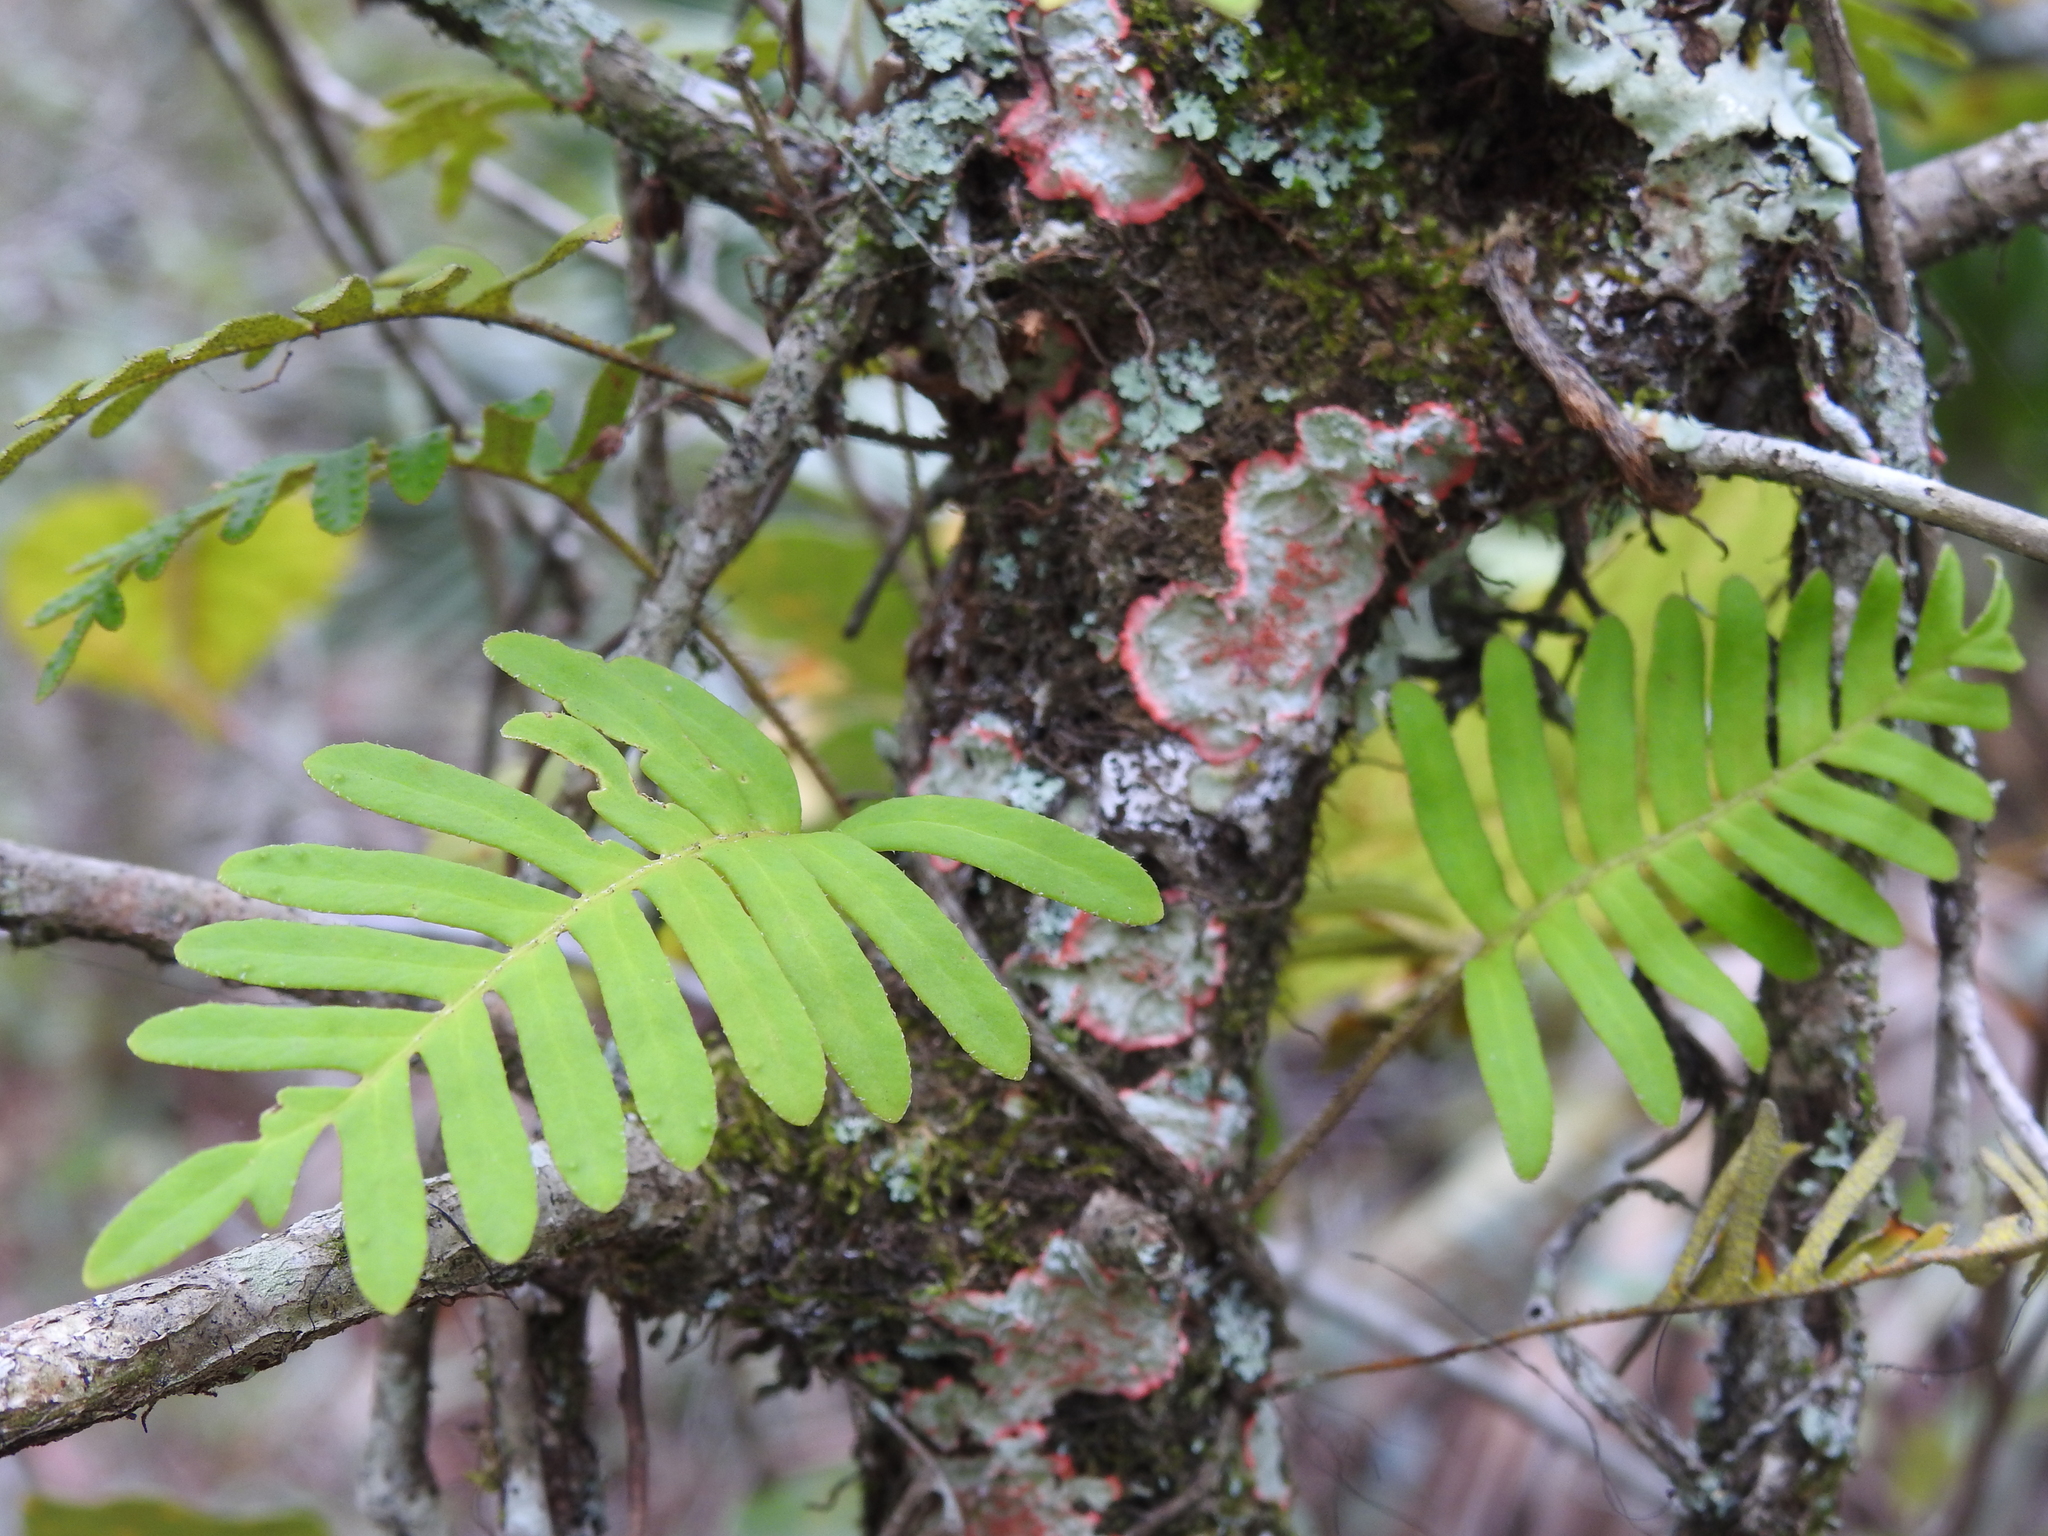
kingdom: Plantae
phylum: Tracheophyta
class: Polypodiopsida
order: Polypodiales
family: Polypodiaceae
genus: Pleopeltis
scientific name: Pleopeltis michauxiana
